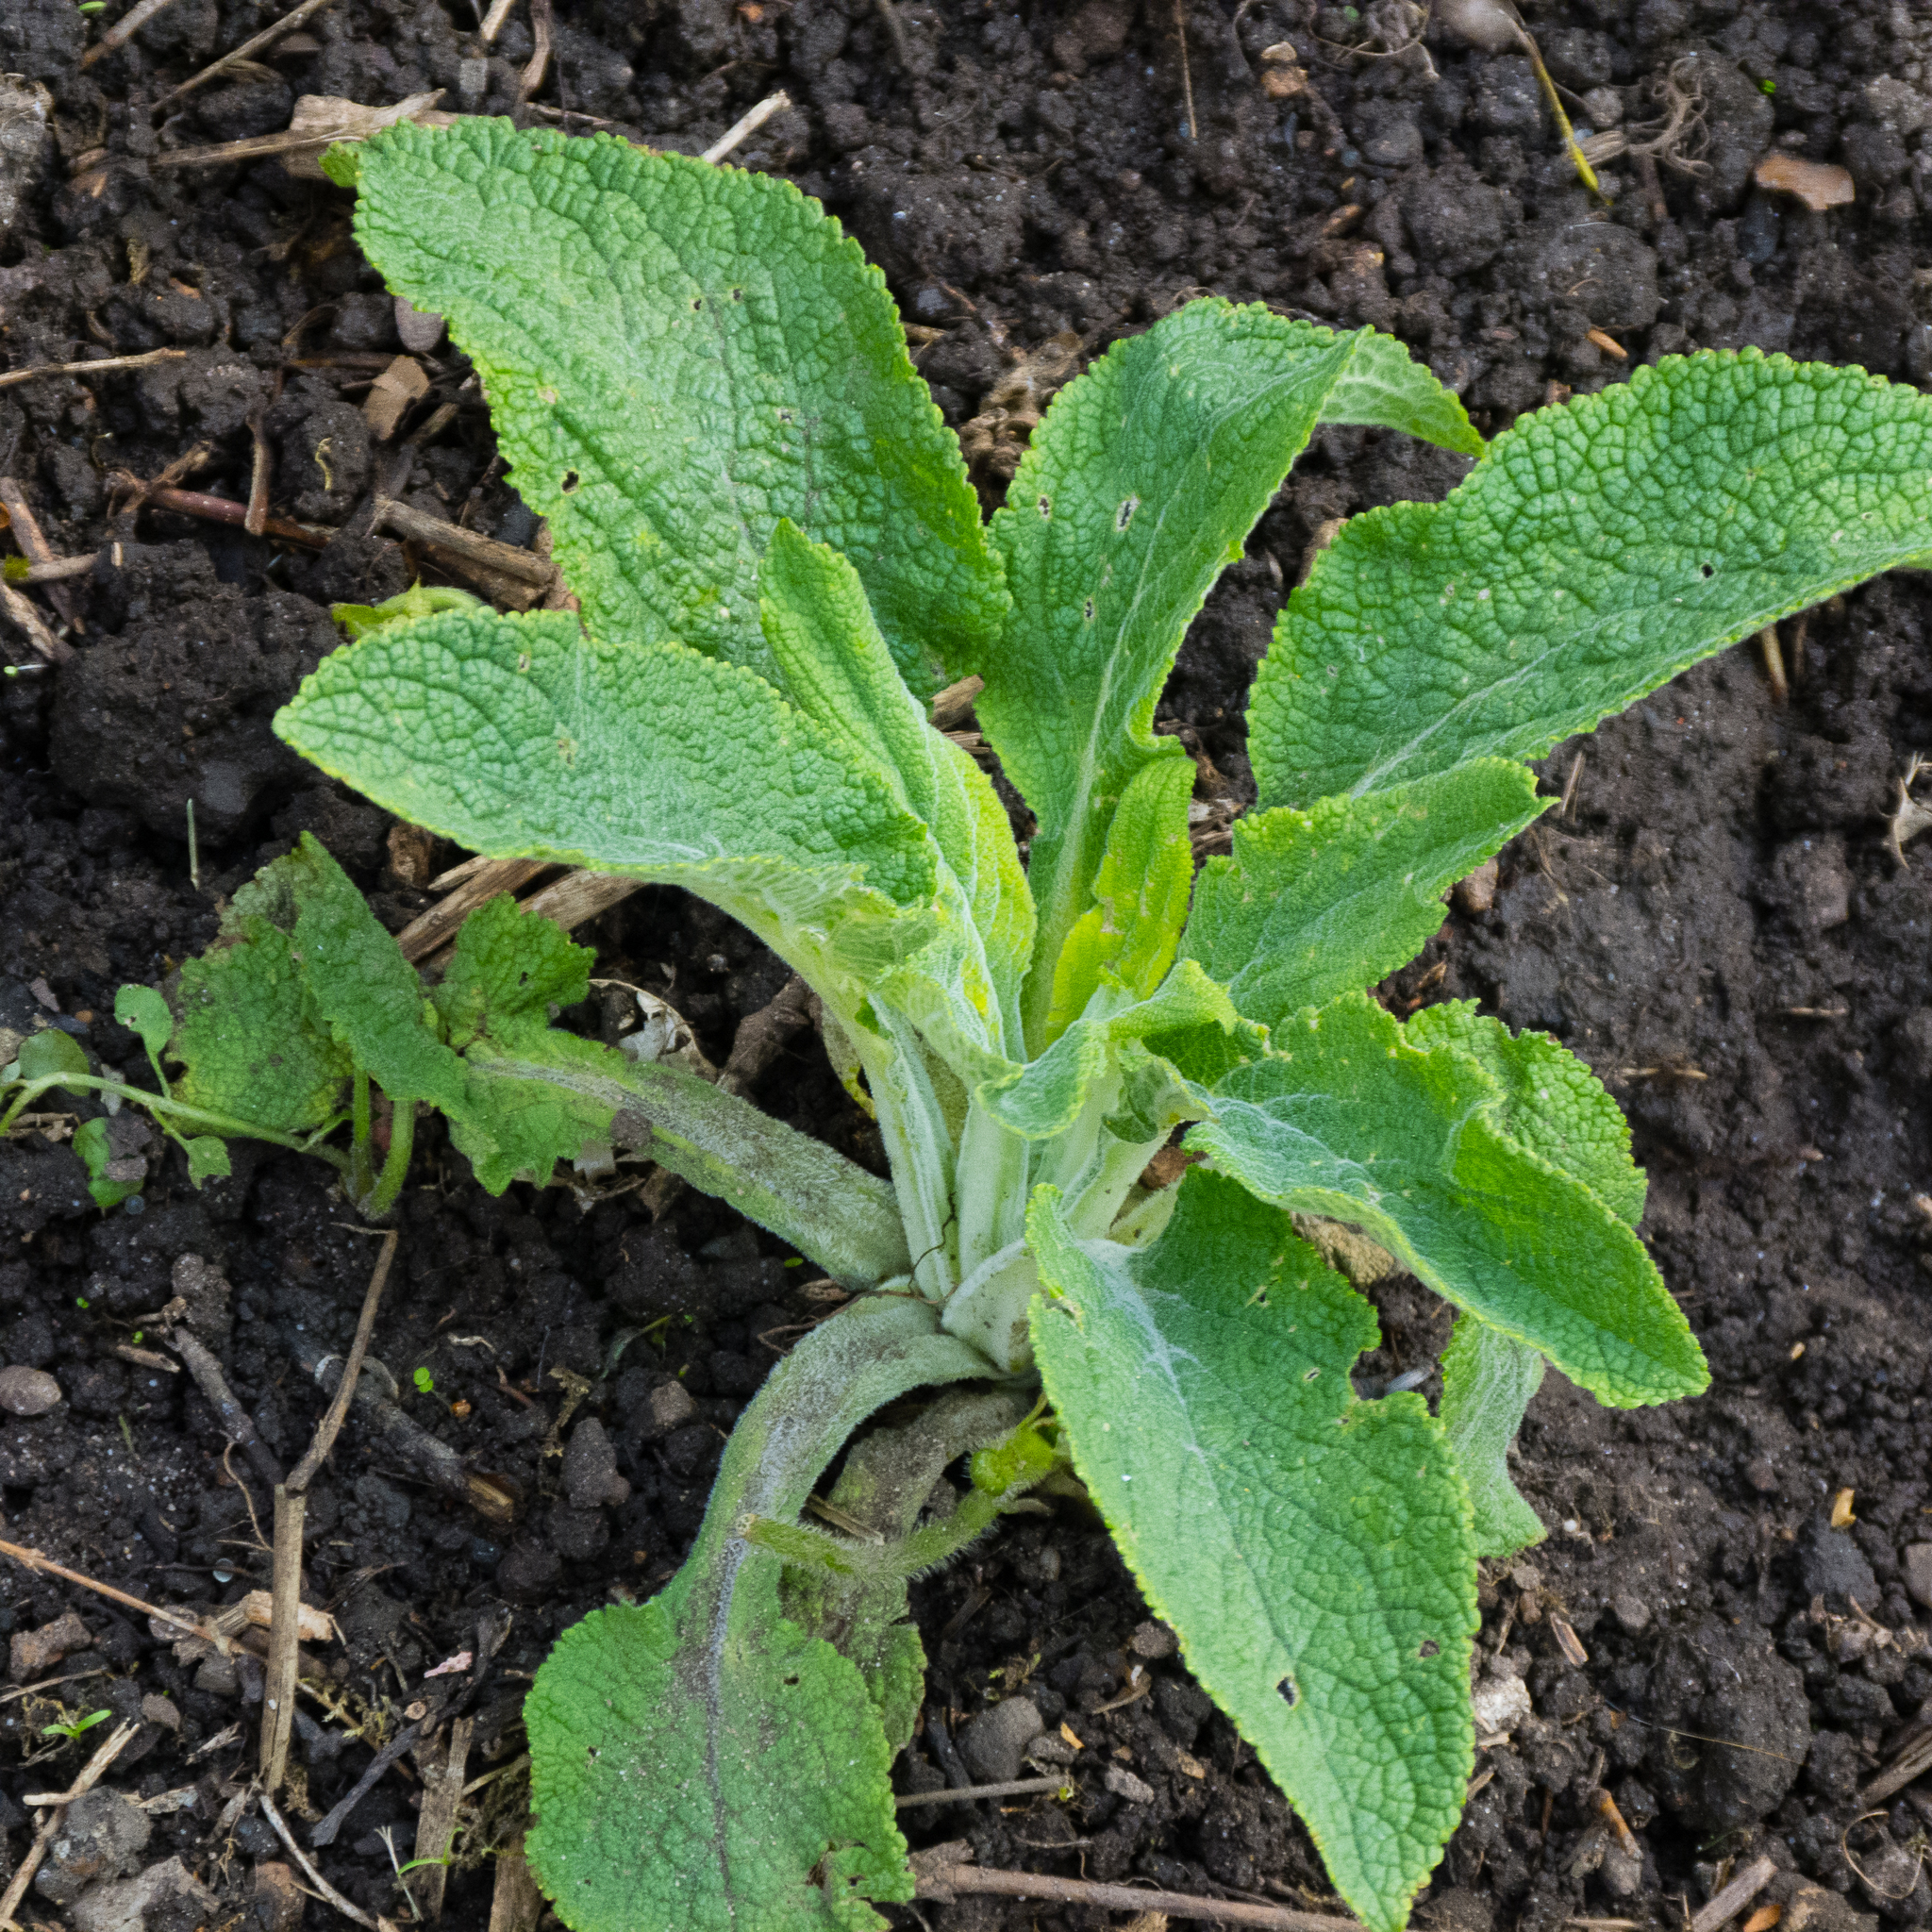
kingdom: Plantae
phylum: Tracheophyta
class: Magnoliopsida
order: Lamiales
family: Plantaginaceae
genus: Digitalis
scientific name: Digitalis purpurea
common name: Foxglove
